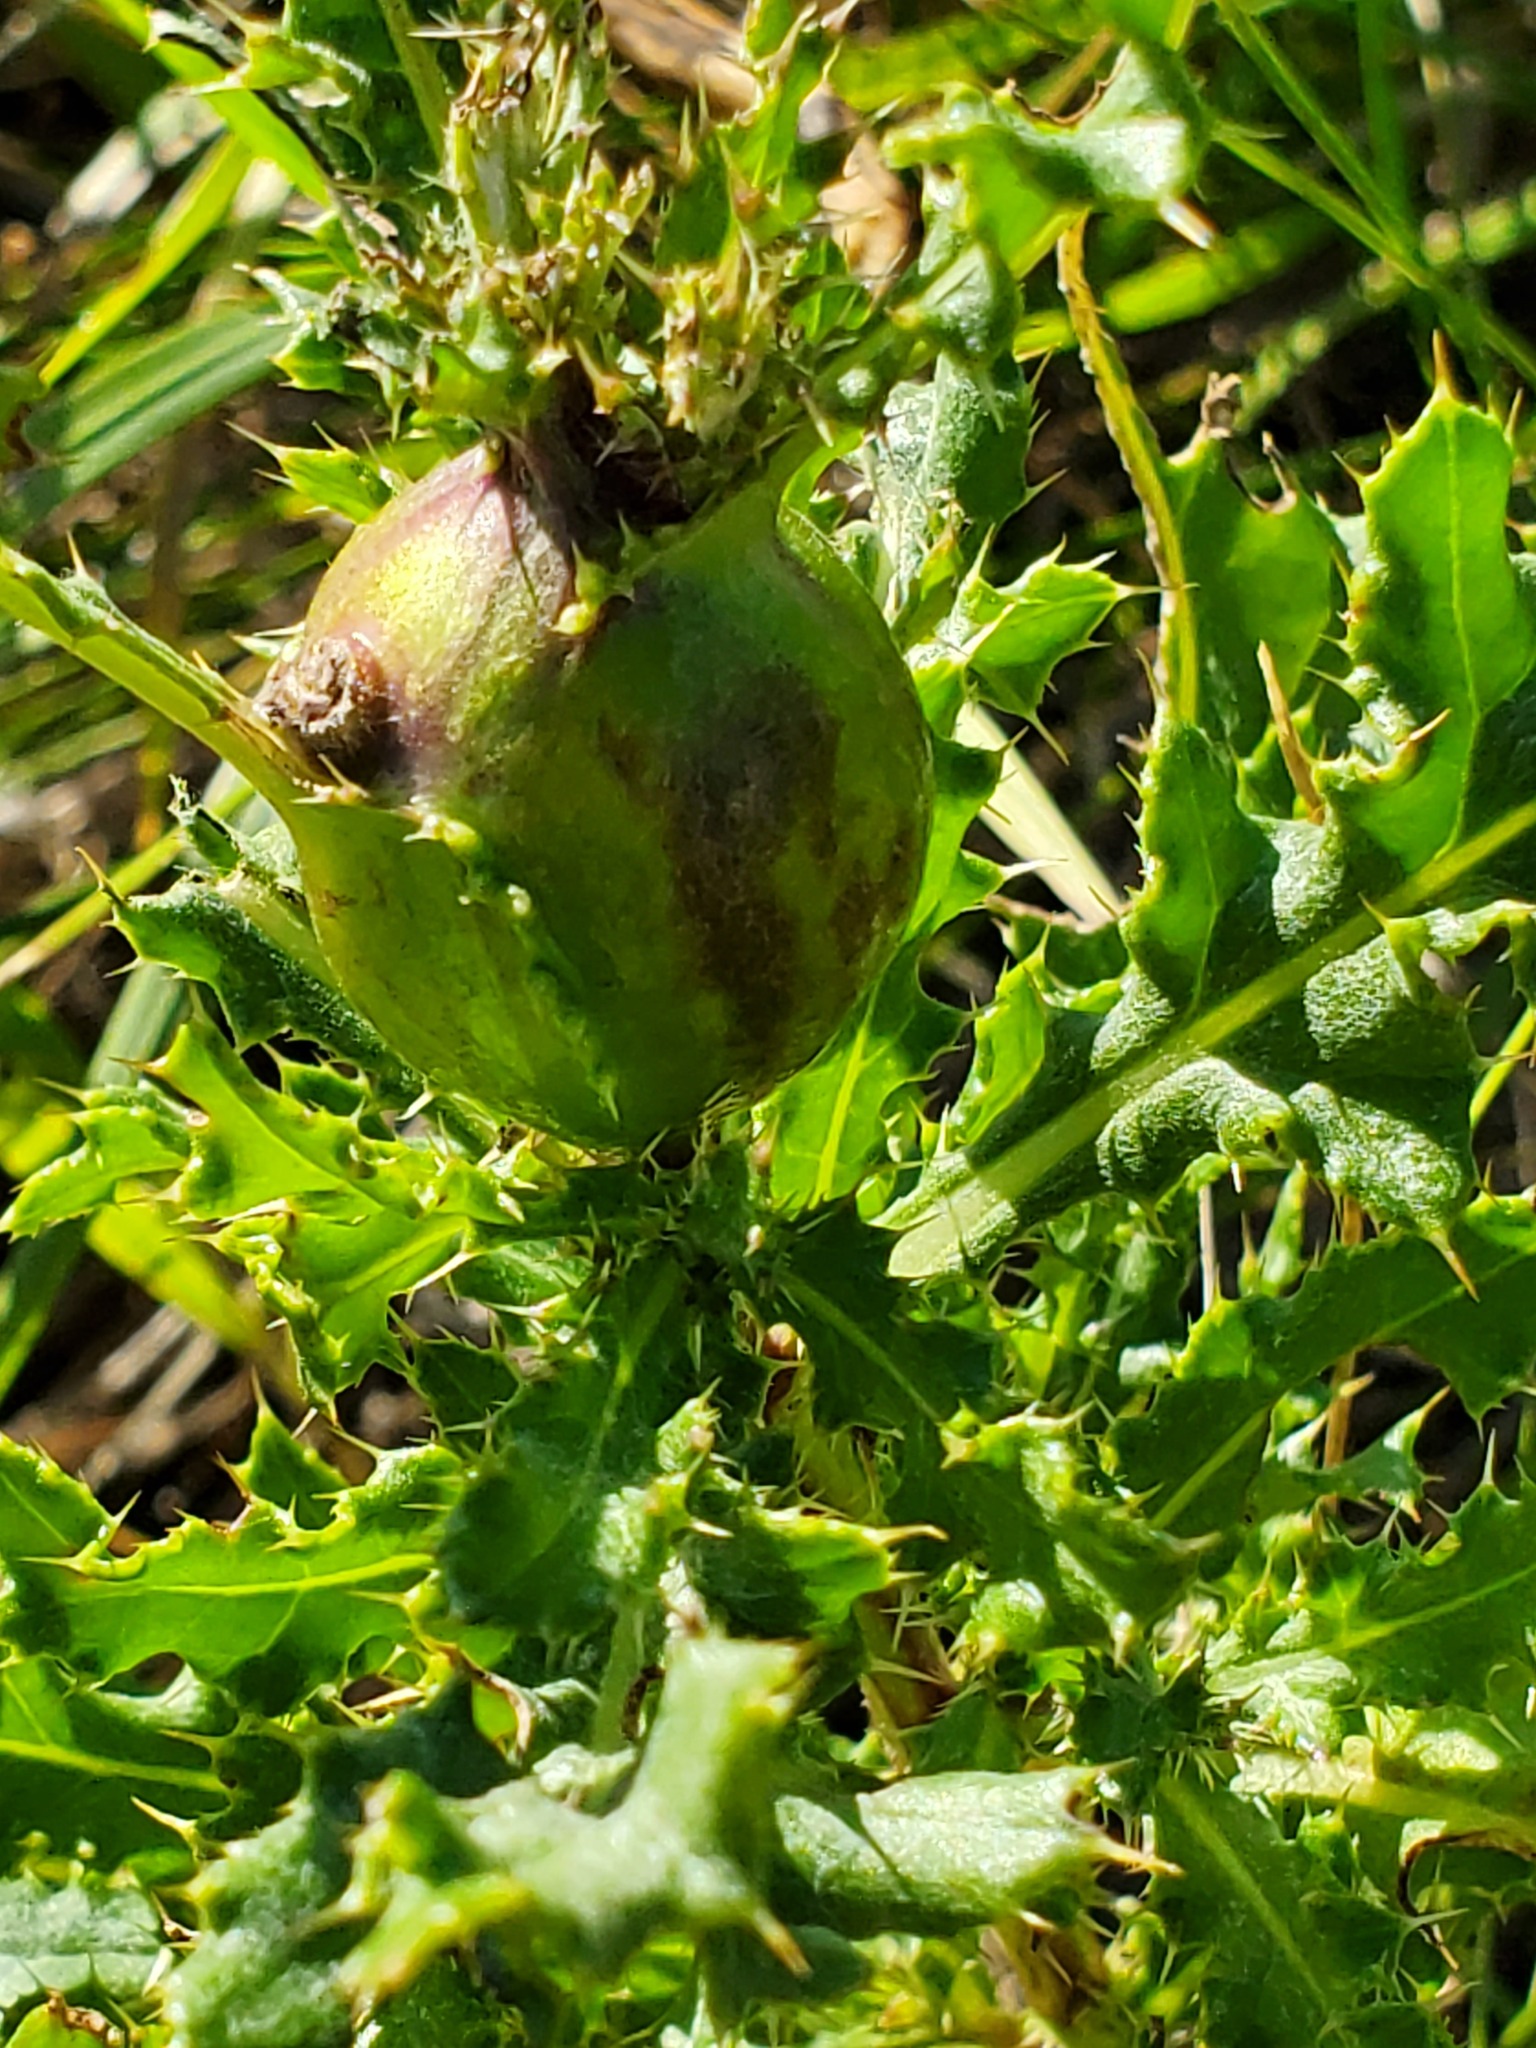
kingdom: Animalia
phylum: Arthropoda
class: Insecta
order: Diptera
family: Tephritidae
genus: Urophora
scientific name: Urophora cardui
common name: Fruit fly
